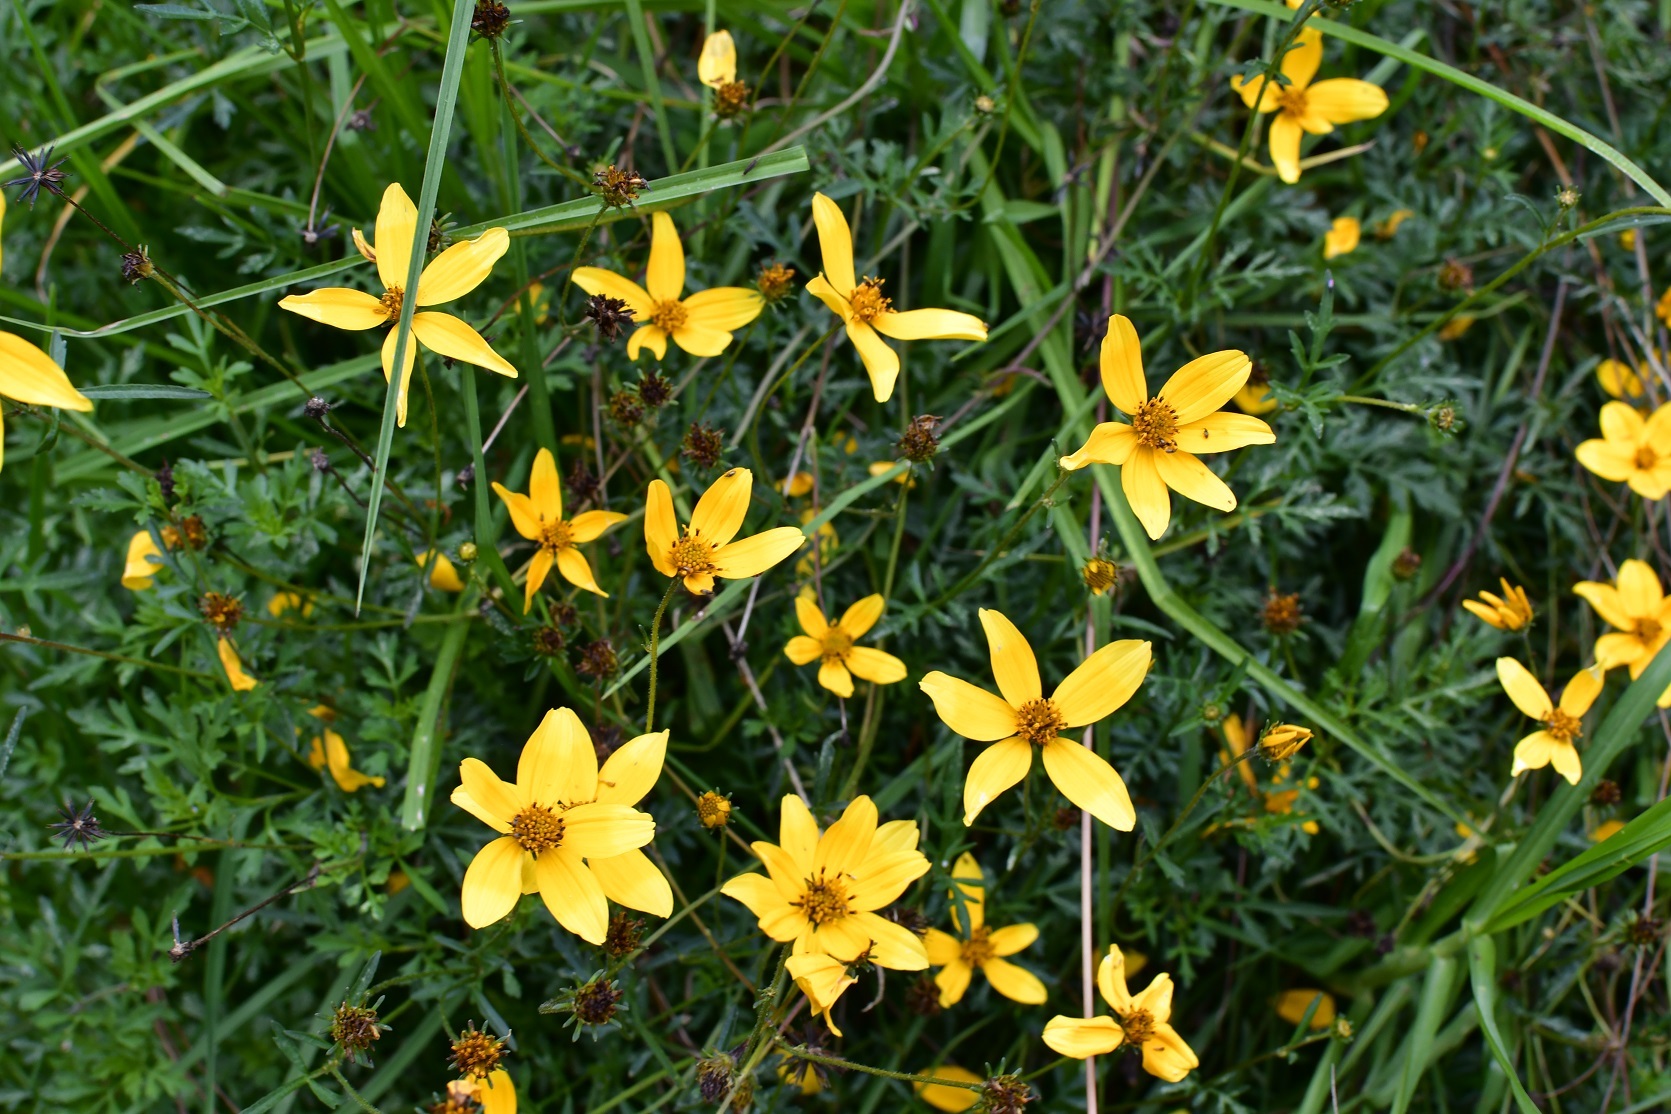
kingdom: Plantae
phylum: Tracheophyta
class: Magnoliopsida
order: Asterales
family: Asteraceae
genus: Bidens
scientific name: Bidens triplinervia
